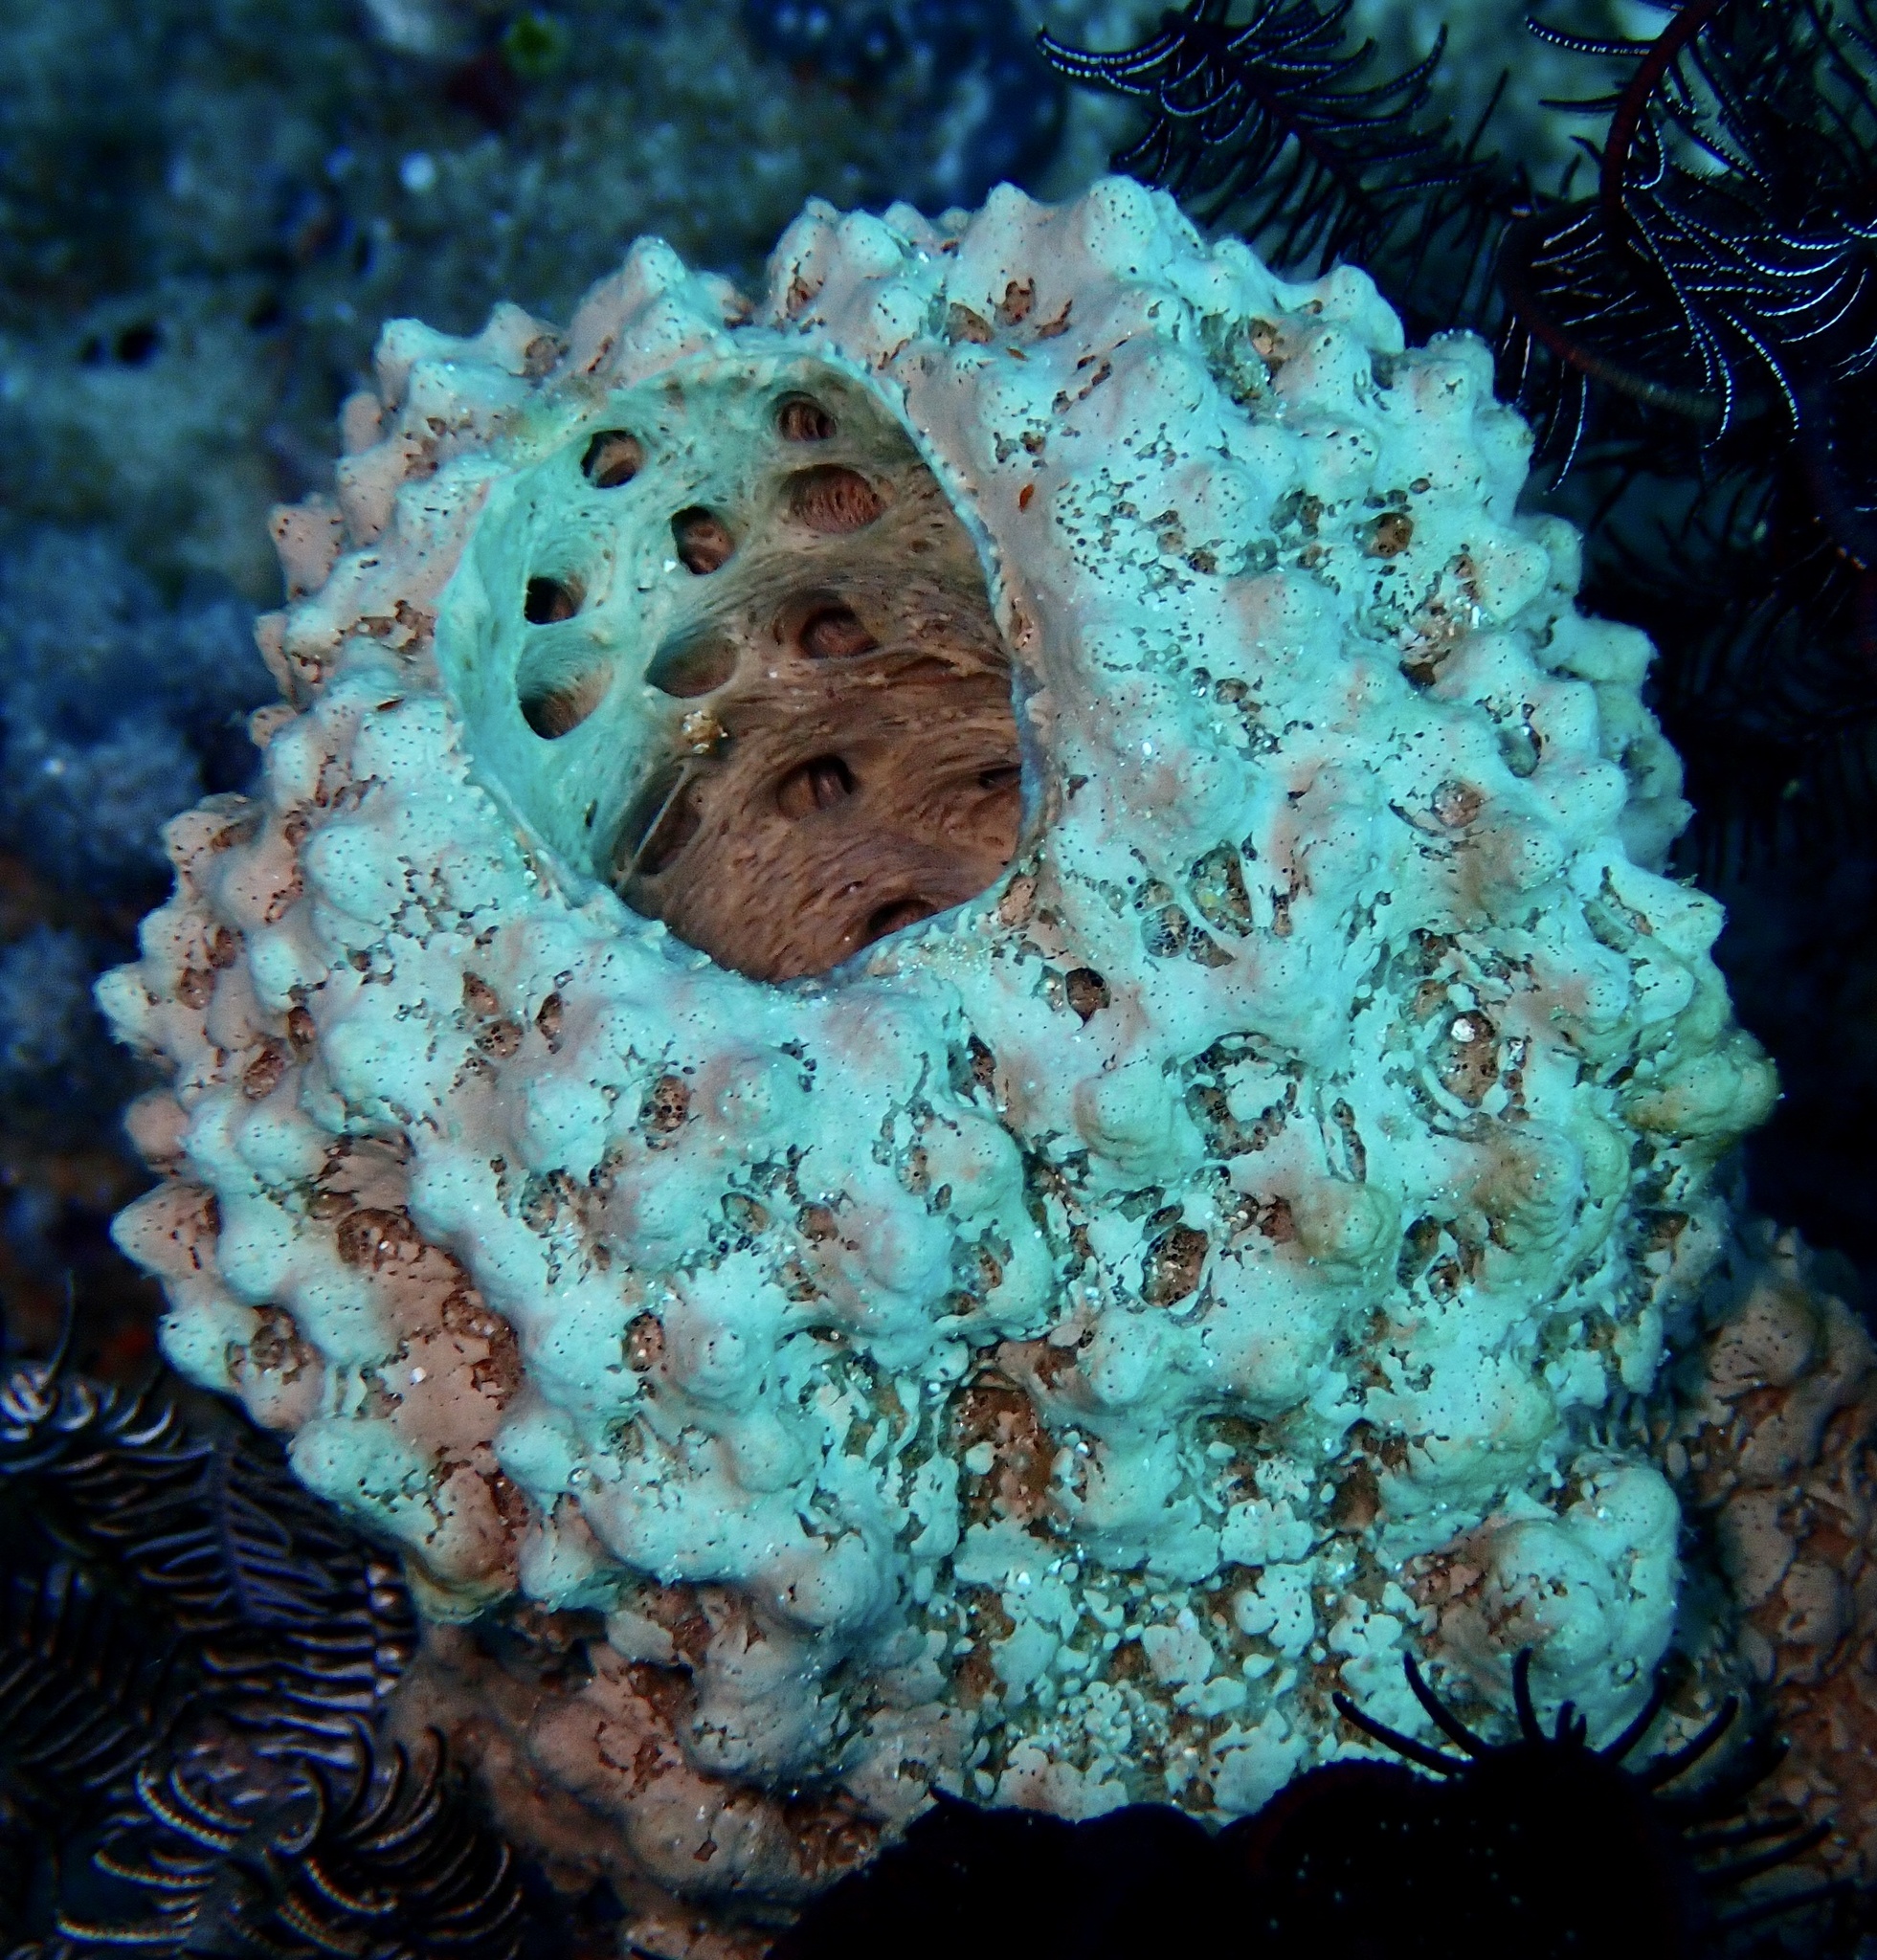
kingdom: Animalia
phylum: Porifera
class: Demospongiae
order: Tethyida
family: Hemiasterellidae
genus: Liosina
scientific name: Liosina paradoxa
